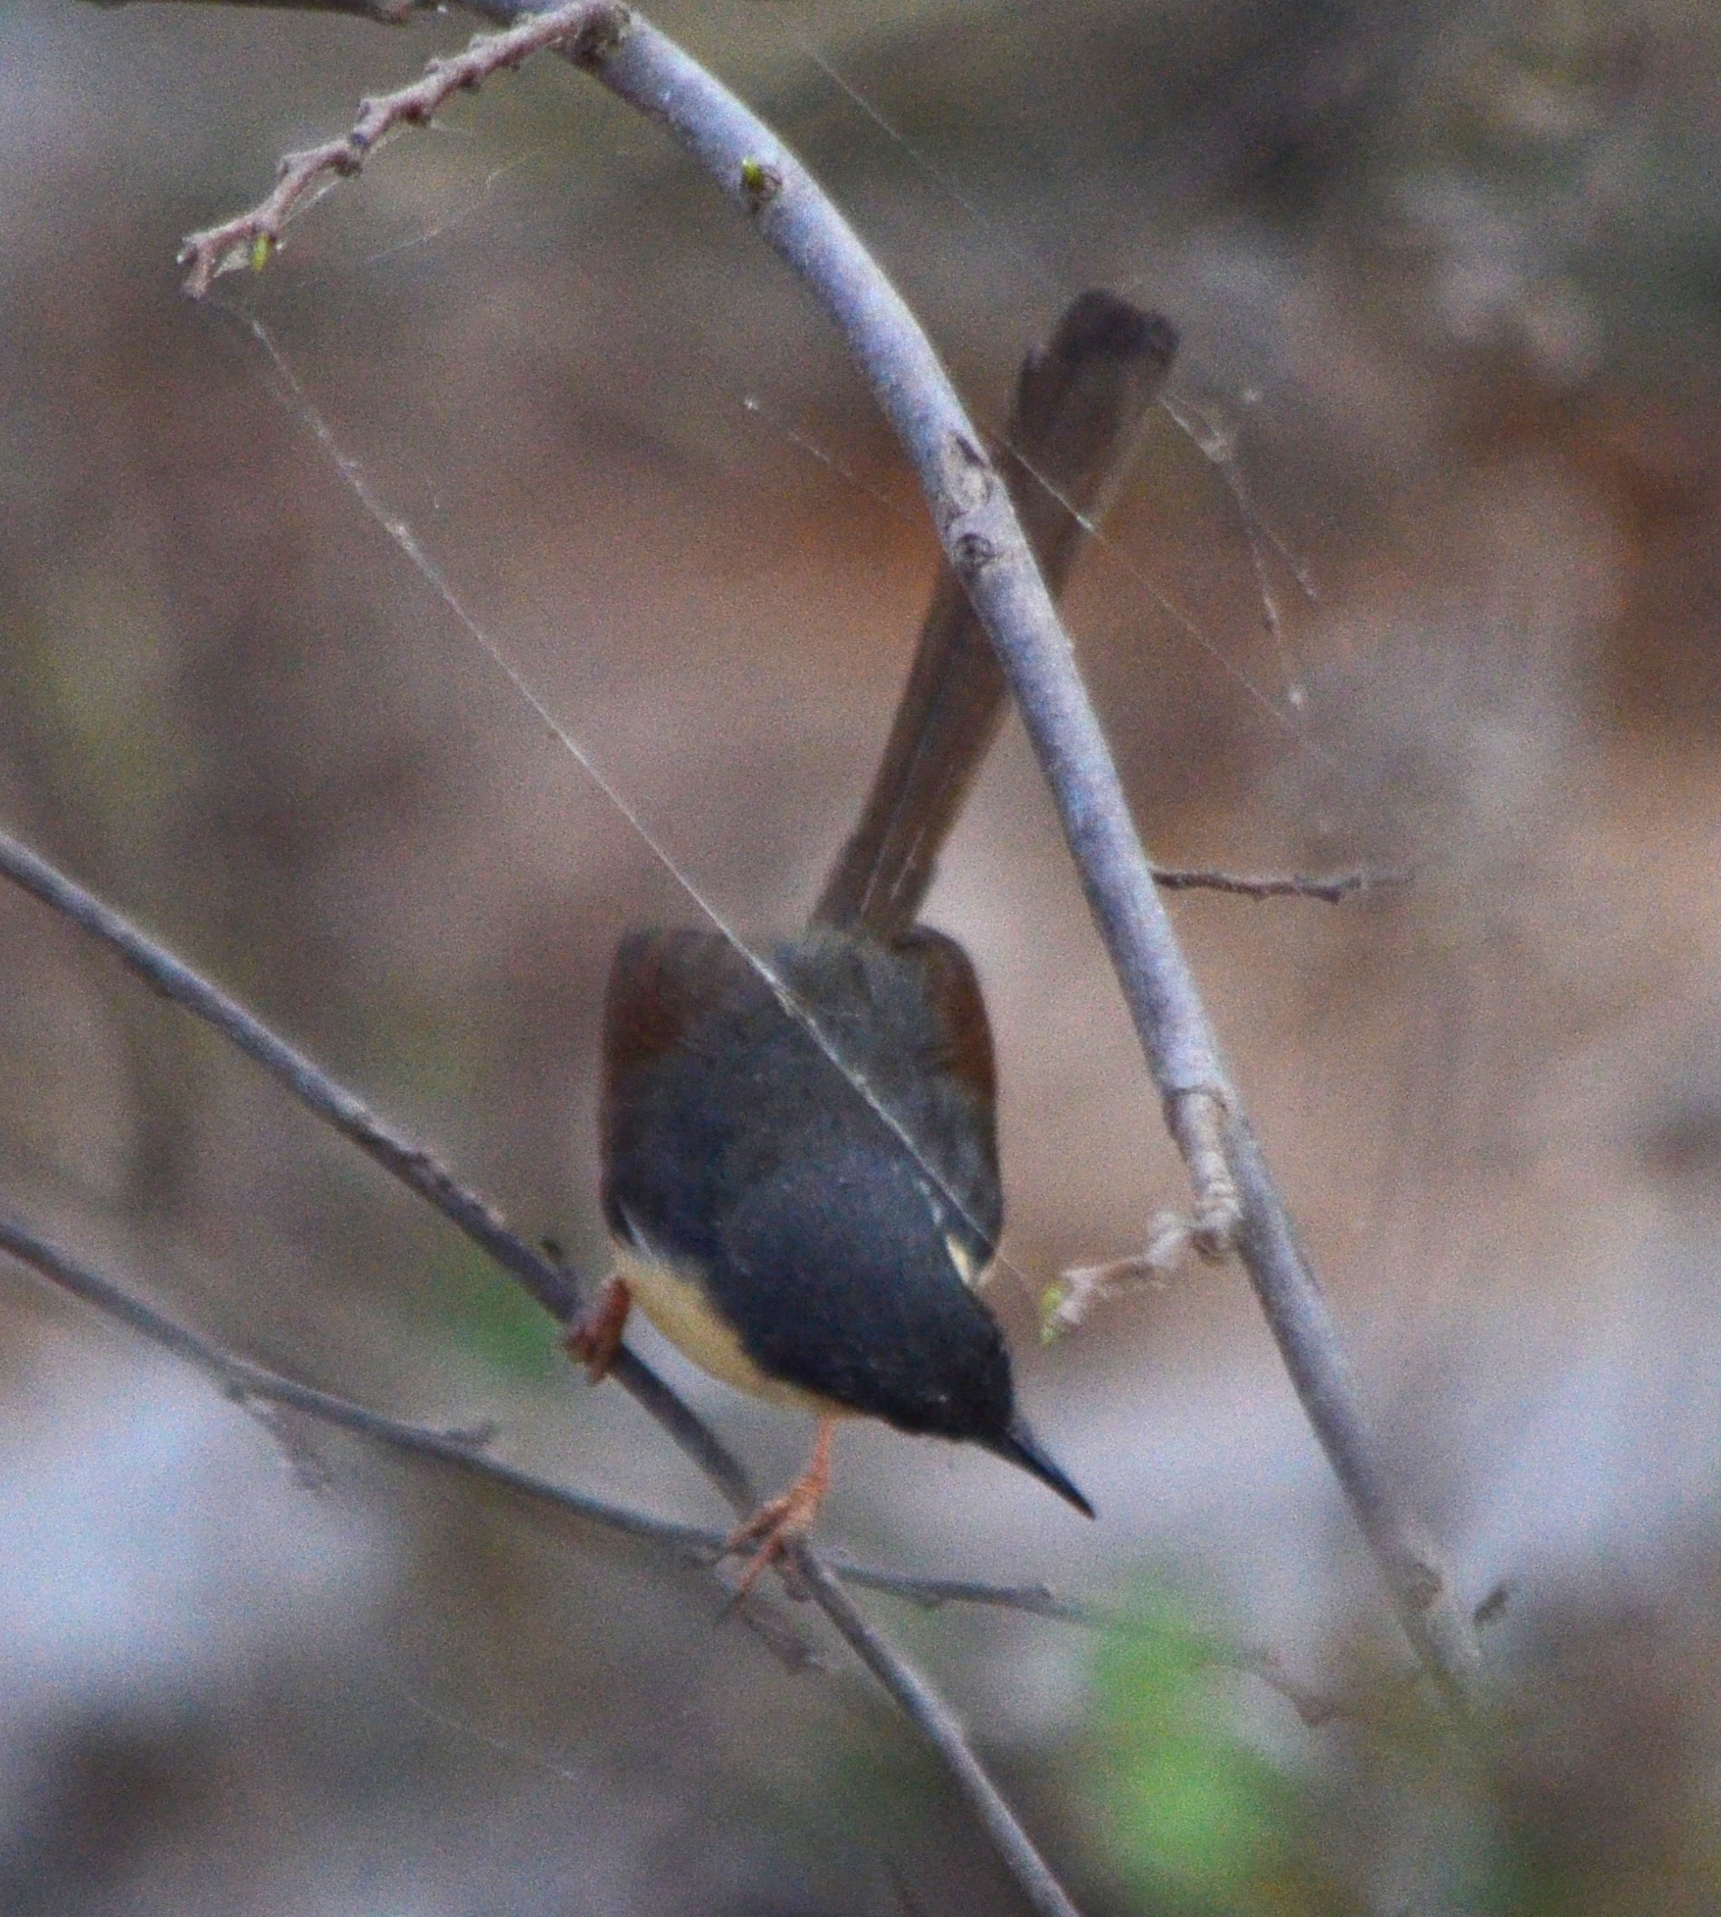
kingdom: Animalia
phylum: Chordata
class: Aves
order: Passeriformes
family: Cisticolidae
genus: Prinia
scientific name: Prinia socialis
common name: Ashy prinia
